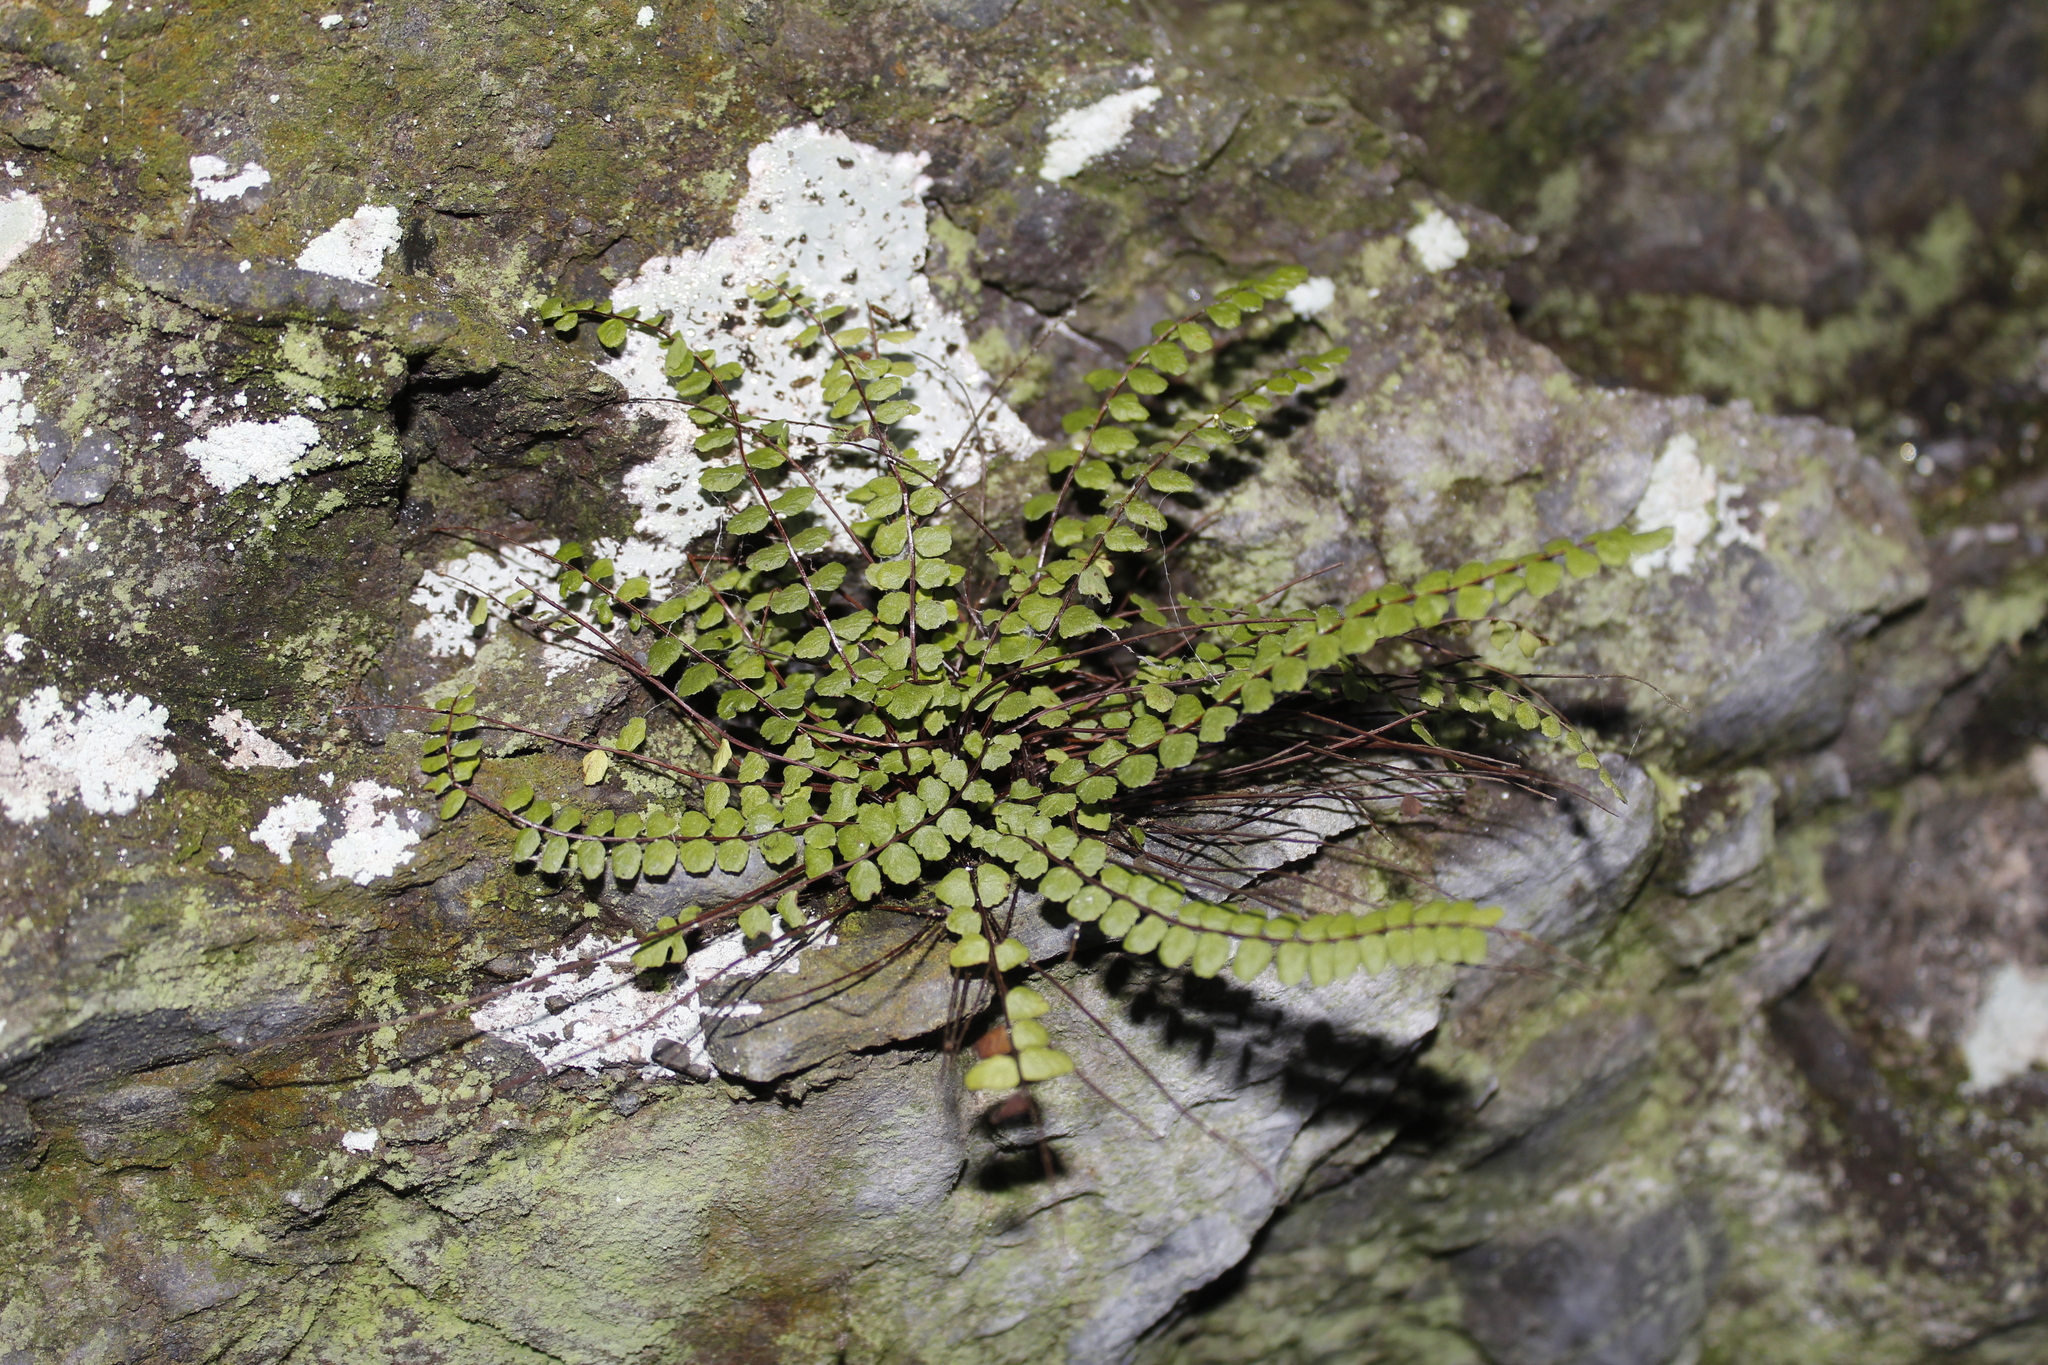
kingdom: Plantae
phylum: Tracheophyta
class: Polypodiopsida
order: Polypodiales
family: Aspleniaceae
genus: Asplenium
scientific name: Asplenium trichomanes
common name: Maidenhair spleenwort
